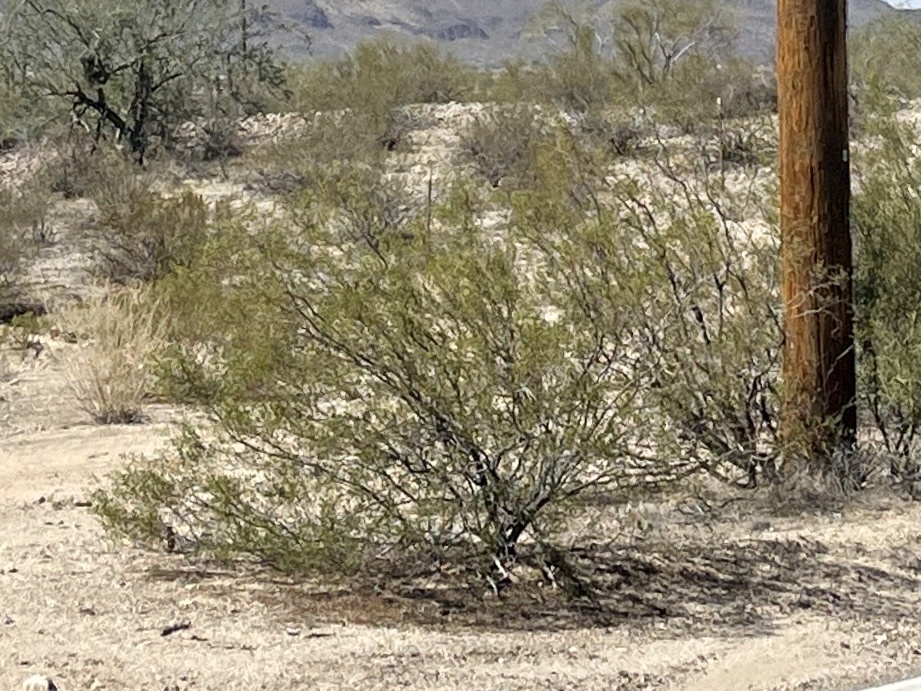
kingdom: Plantae
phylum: Tracheophyta
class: Magnoliopsida
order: Zygophyllales
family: Zygophyllaceae
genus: Larrea
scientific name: Larrea tridentata
